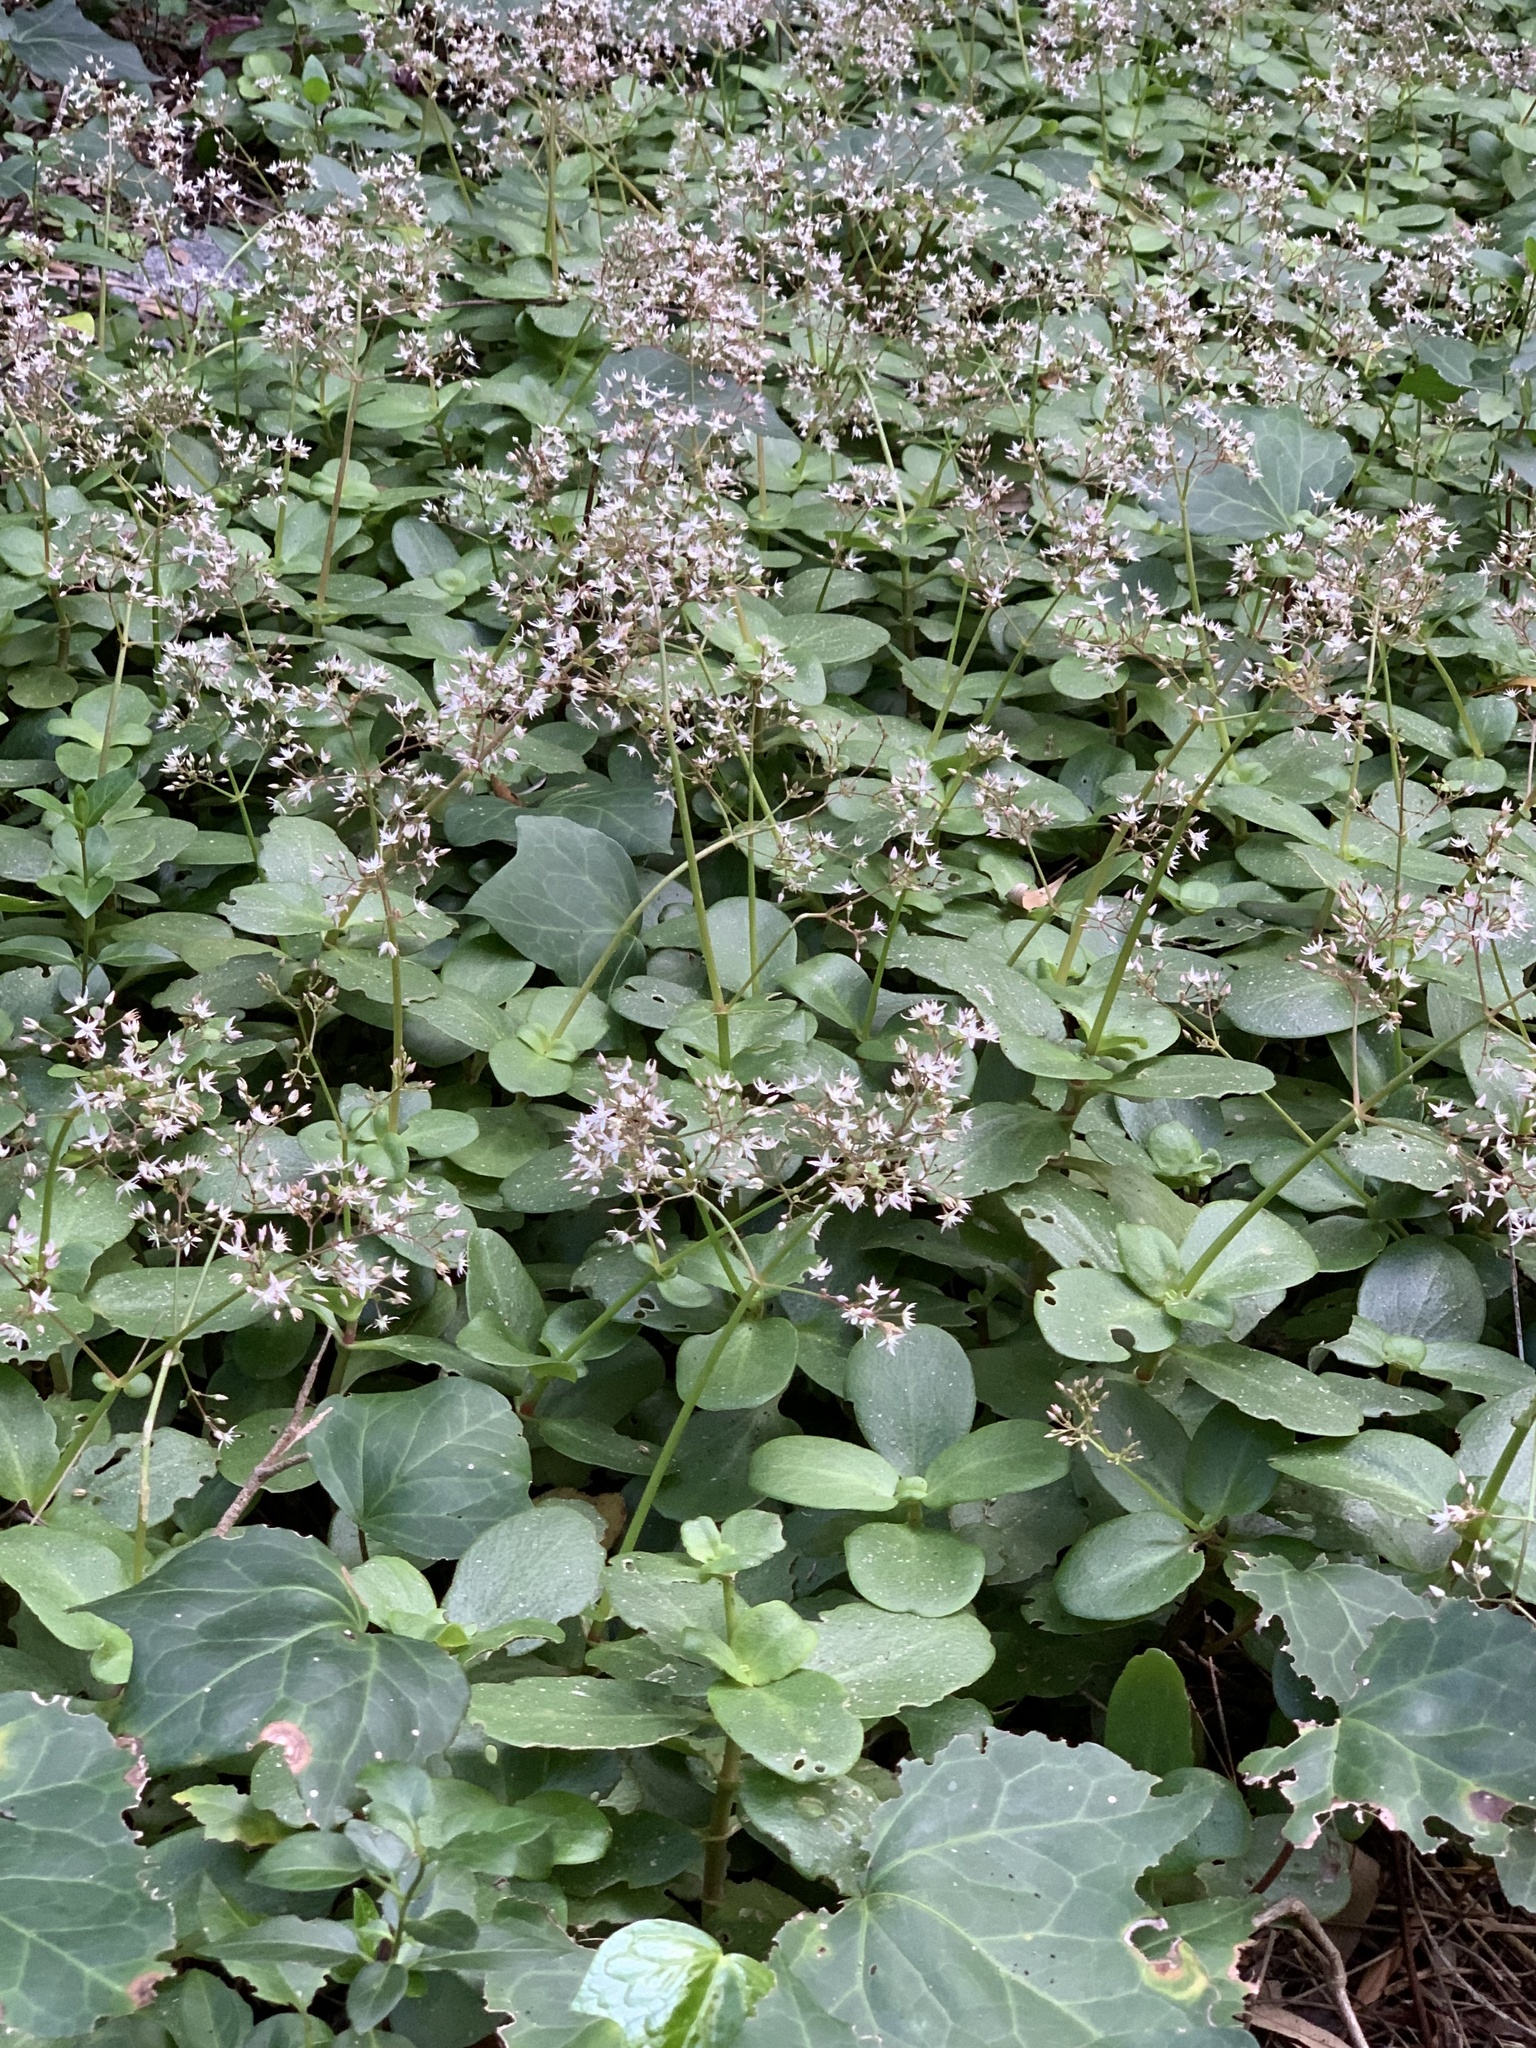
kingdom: Plantae
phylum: Tracheophyta
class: Magnoliopsida
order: Saxifragales
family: Crassulaceae
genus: Crassula
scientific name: Crassula multicava
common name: Cape province pygmyweed
